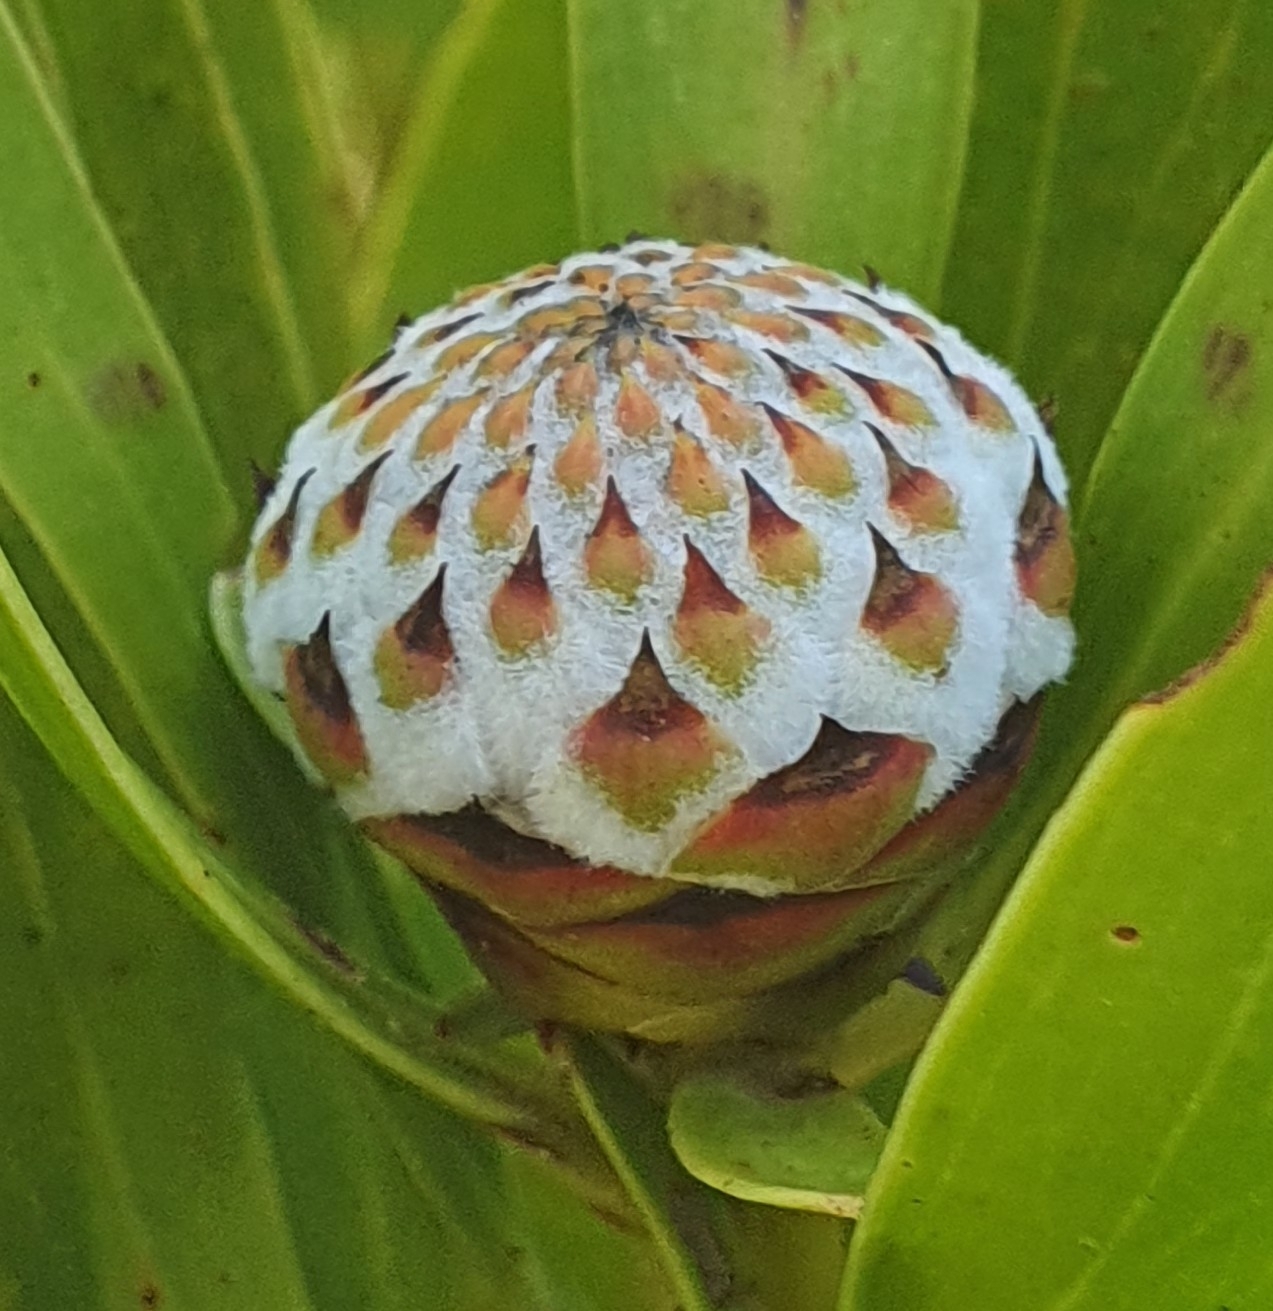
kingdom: Plantae
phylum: Tracheophyta
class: Magnoliopsida
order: Proteales
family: Proteaceae
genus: Isopogon
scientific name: Isopogon fletcheri
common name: Fletcher’s drumsticks
